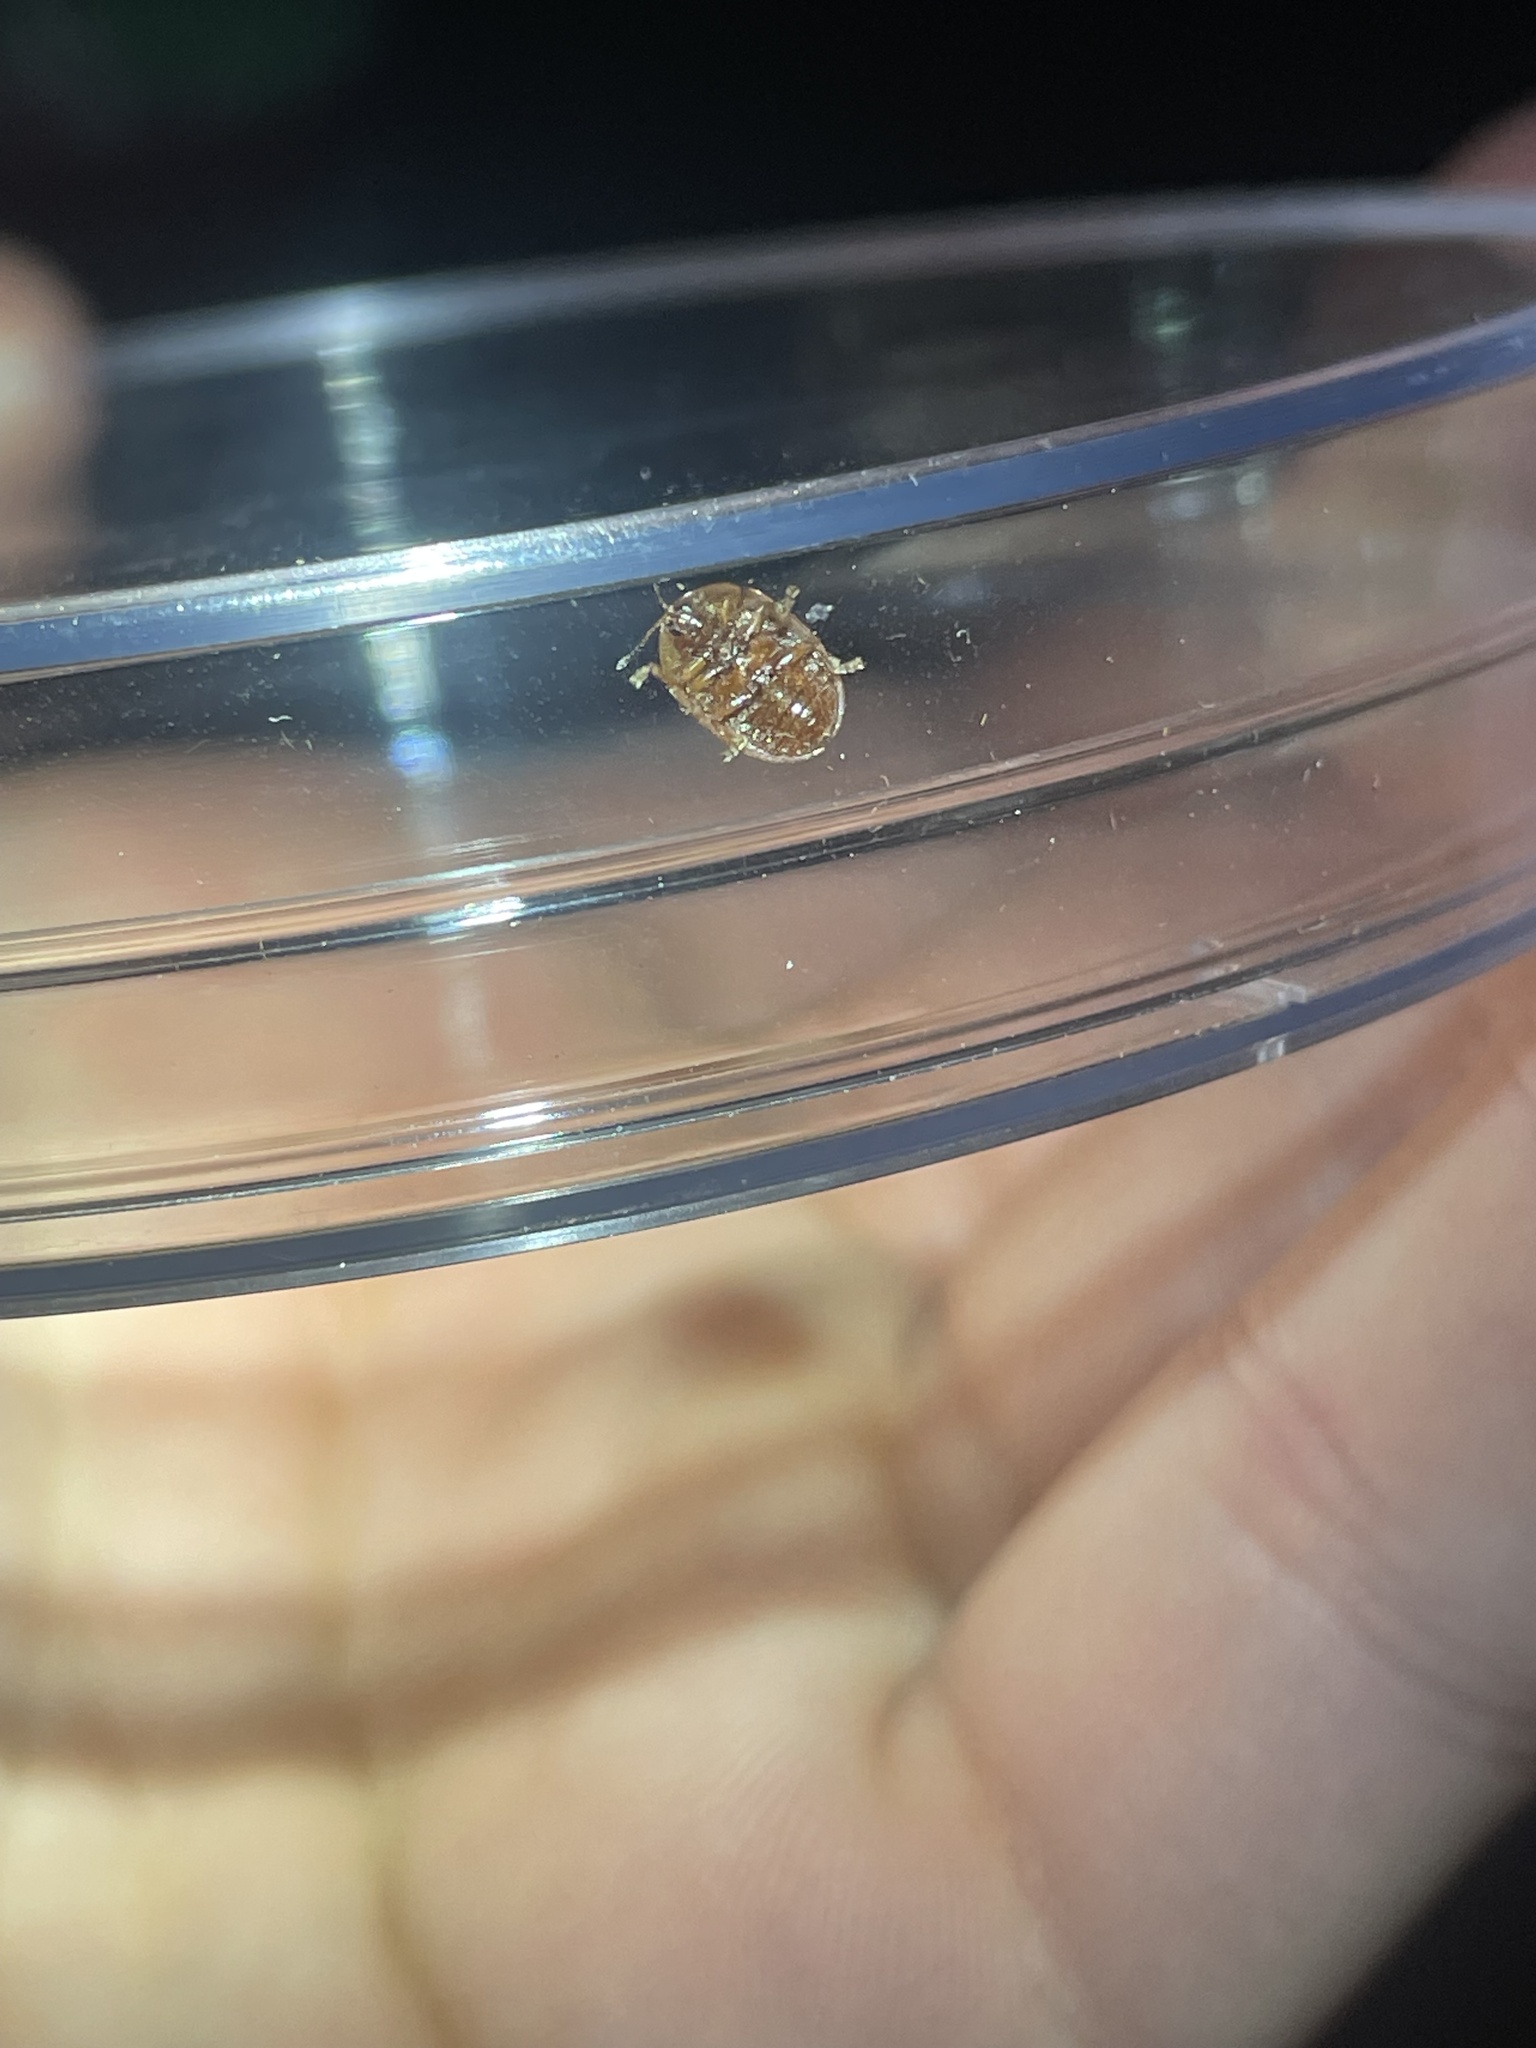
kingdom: Animalia
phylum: Arthropoda
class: Insecta
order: Coleoptera
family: Chrysomelidae
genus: Agroiconota
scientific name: Agroiconota bivittata
